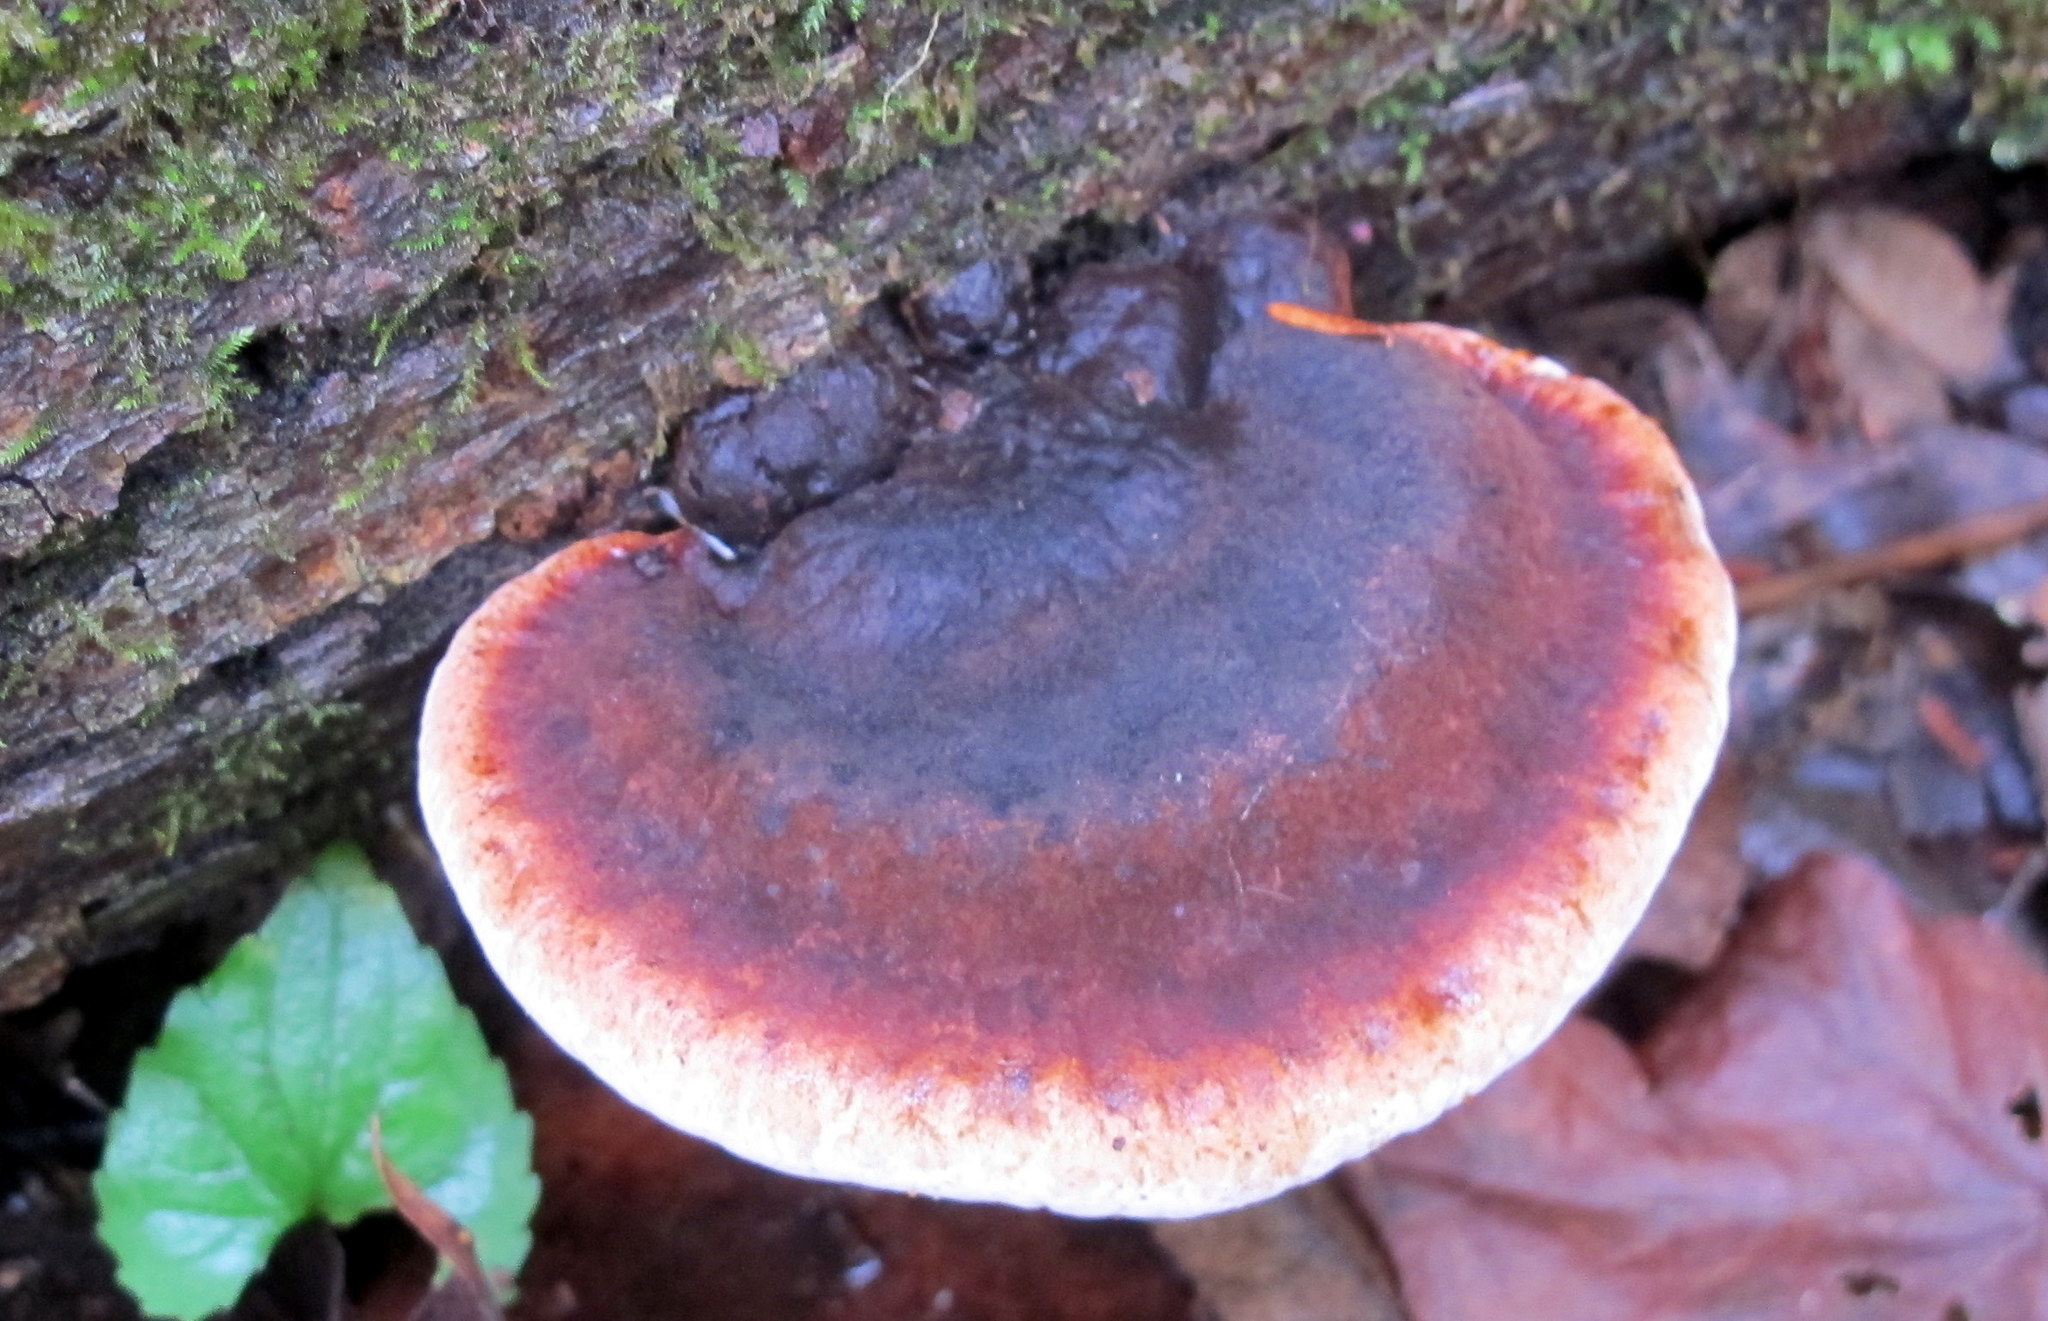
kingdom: Fungi
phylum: Basidiomycota
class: Agaricomycetes
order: Polyporales
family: Ischnodermataceae
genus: Ischnoderma
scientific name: Ischnoderma resinosum
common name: Resinous polypore
